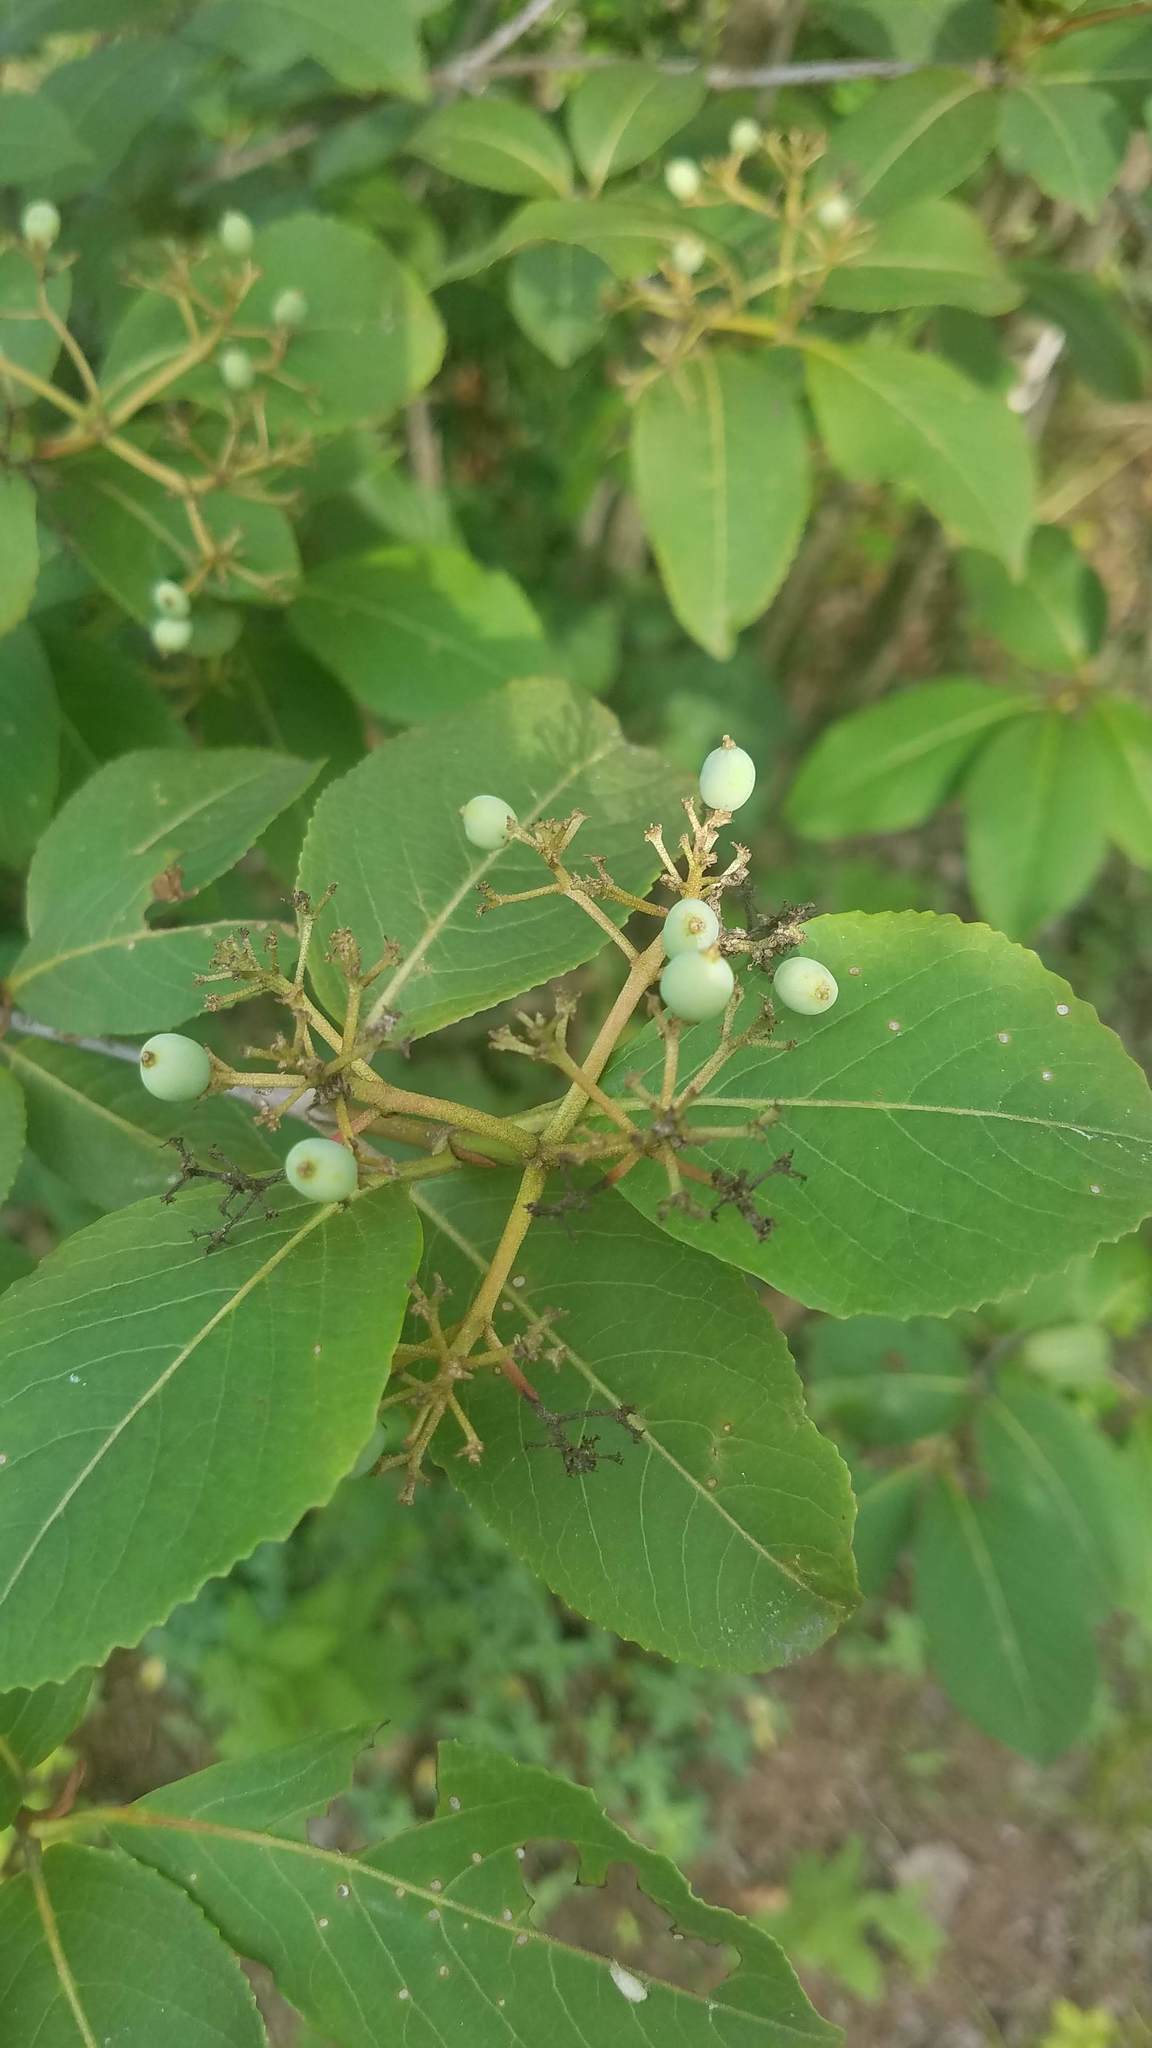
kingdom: Plantae
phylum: Tracheophyta
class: Magnoliopsida
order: Dipsacales
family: Viburnaceae
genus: Viburnum
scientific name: Viburnum cassinoides
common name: Swamp haw
